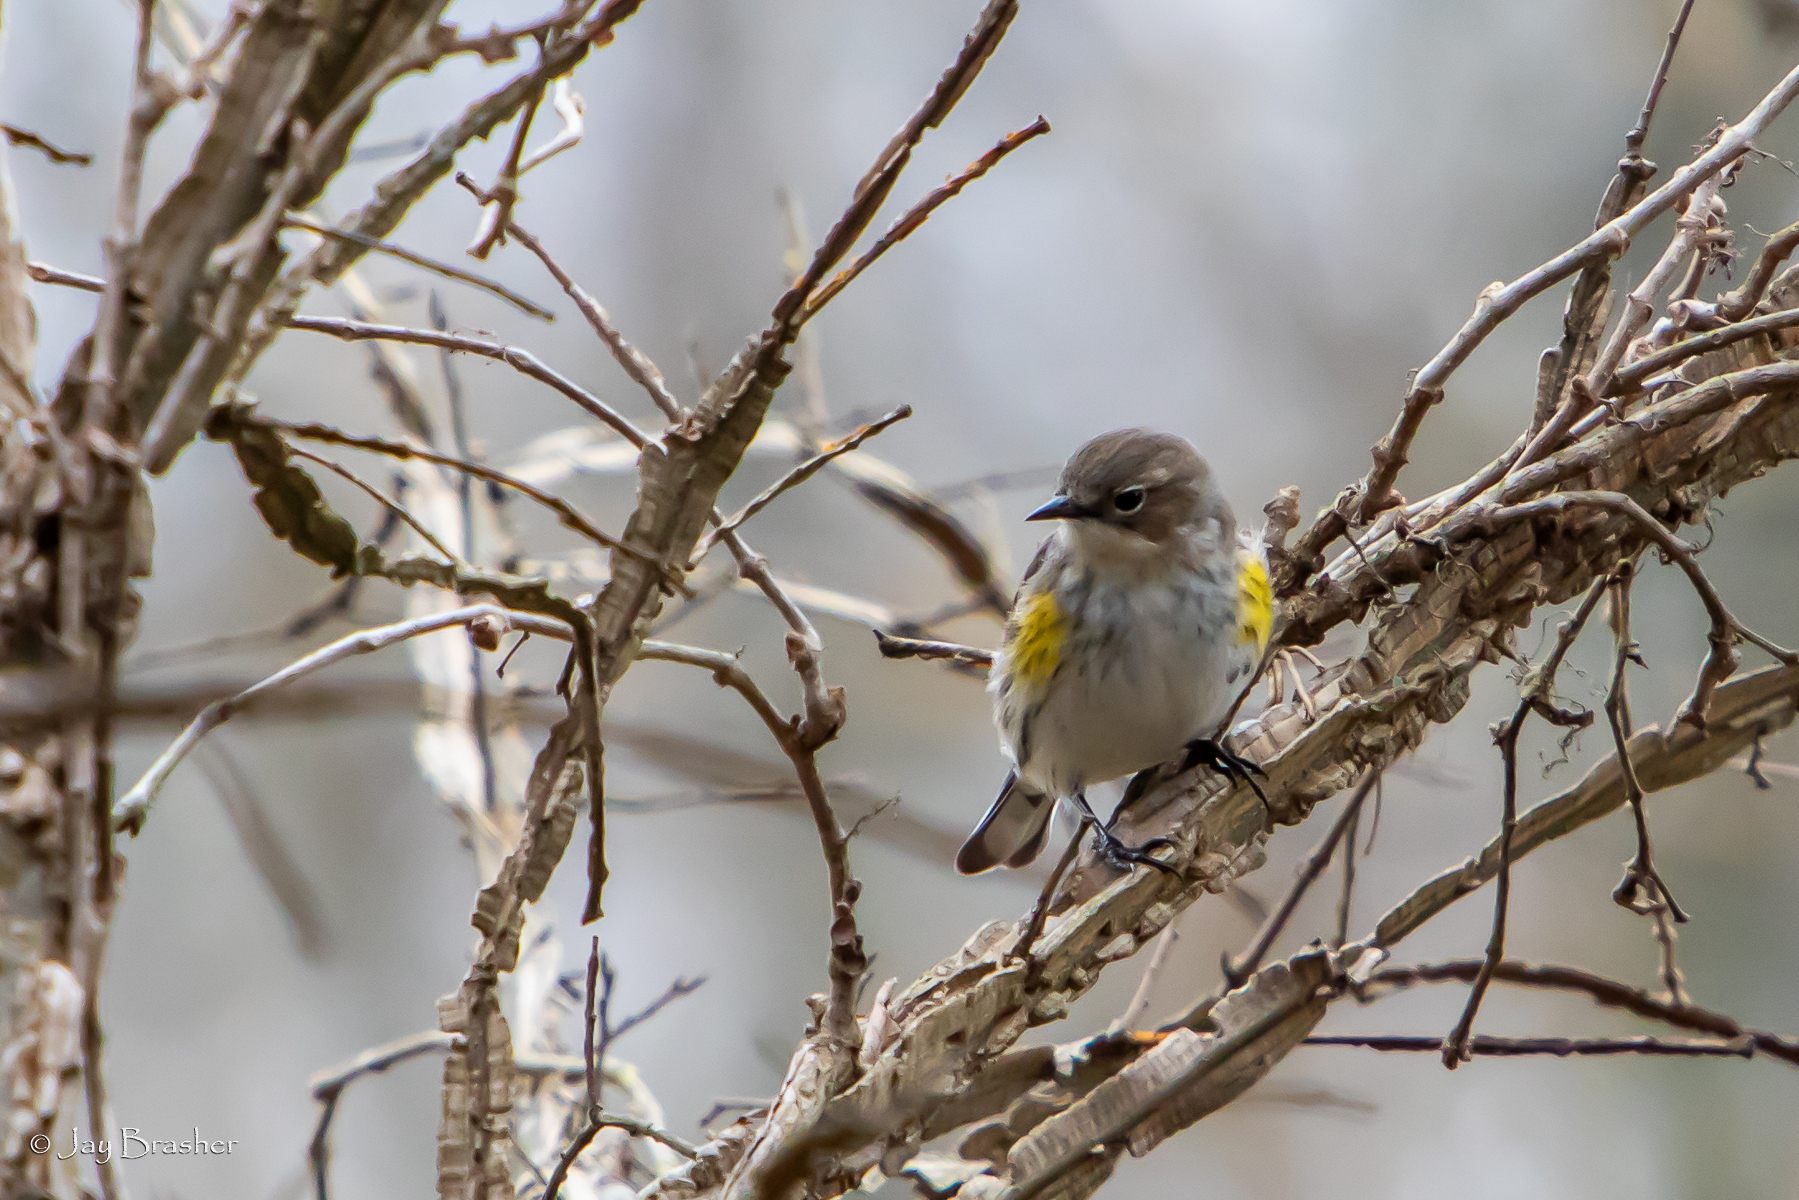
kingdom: Animalia
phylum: Chordata
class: Aves
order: Passeriformes
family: Parulidae
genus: Setophaga
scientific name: Setophaga coronata
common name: Myrtle warbler
